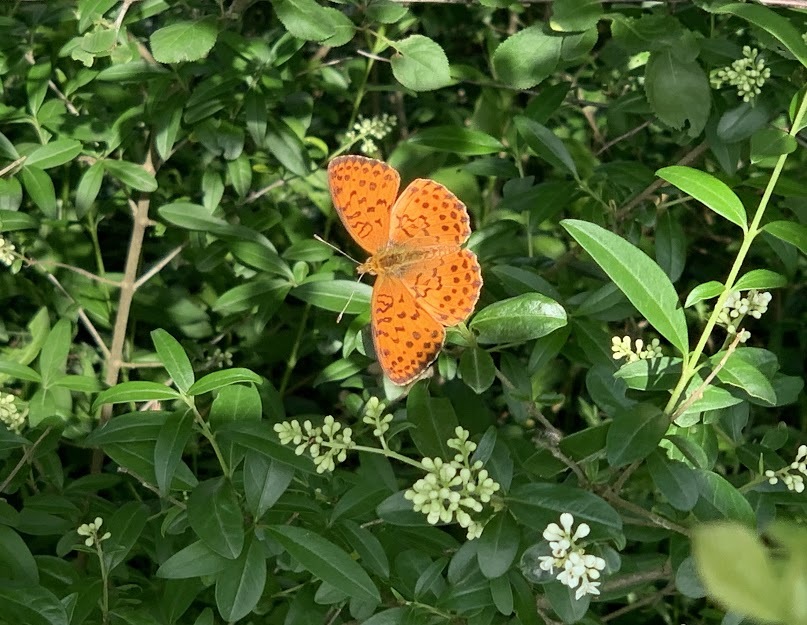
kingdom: Animalia
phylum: Arthropoda
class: Insecta
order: Lepidoptera
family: Nymphalidae
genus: Brenthis
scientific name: Brenthis daphne
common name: Marbled fritillary
